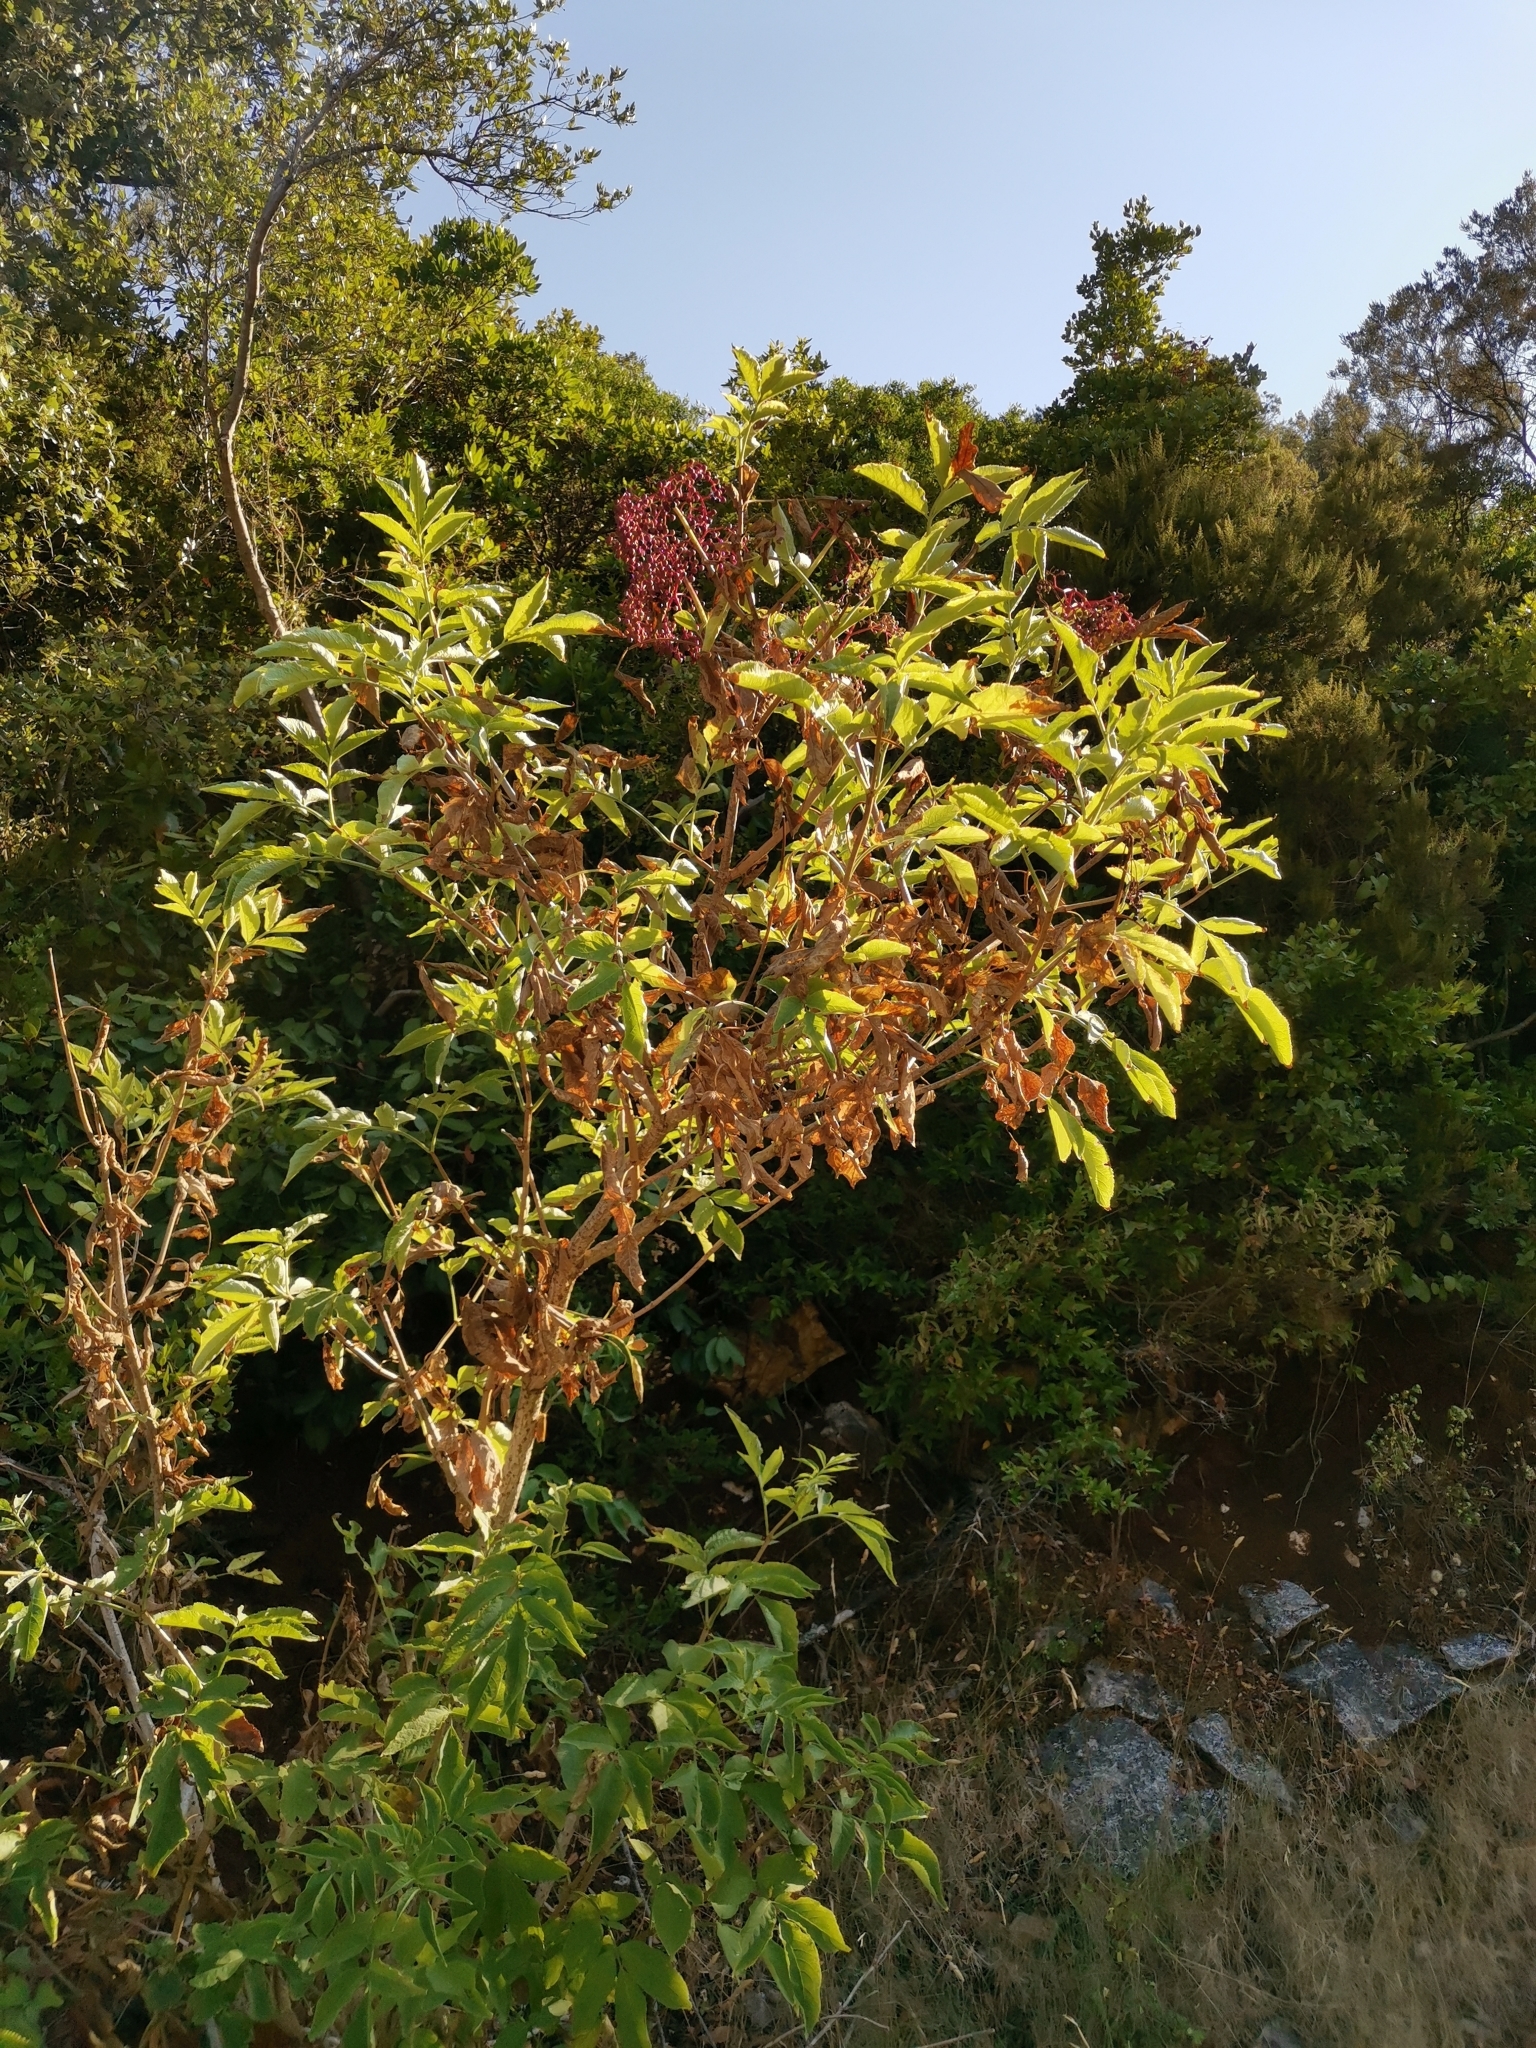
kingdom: Plantae
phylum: Tracheophyta
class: Magnoliopsida
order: Dipsacales
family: Viburnaceae
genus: Sambucus
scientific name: Sambucus nigra
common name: Elder
